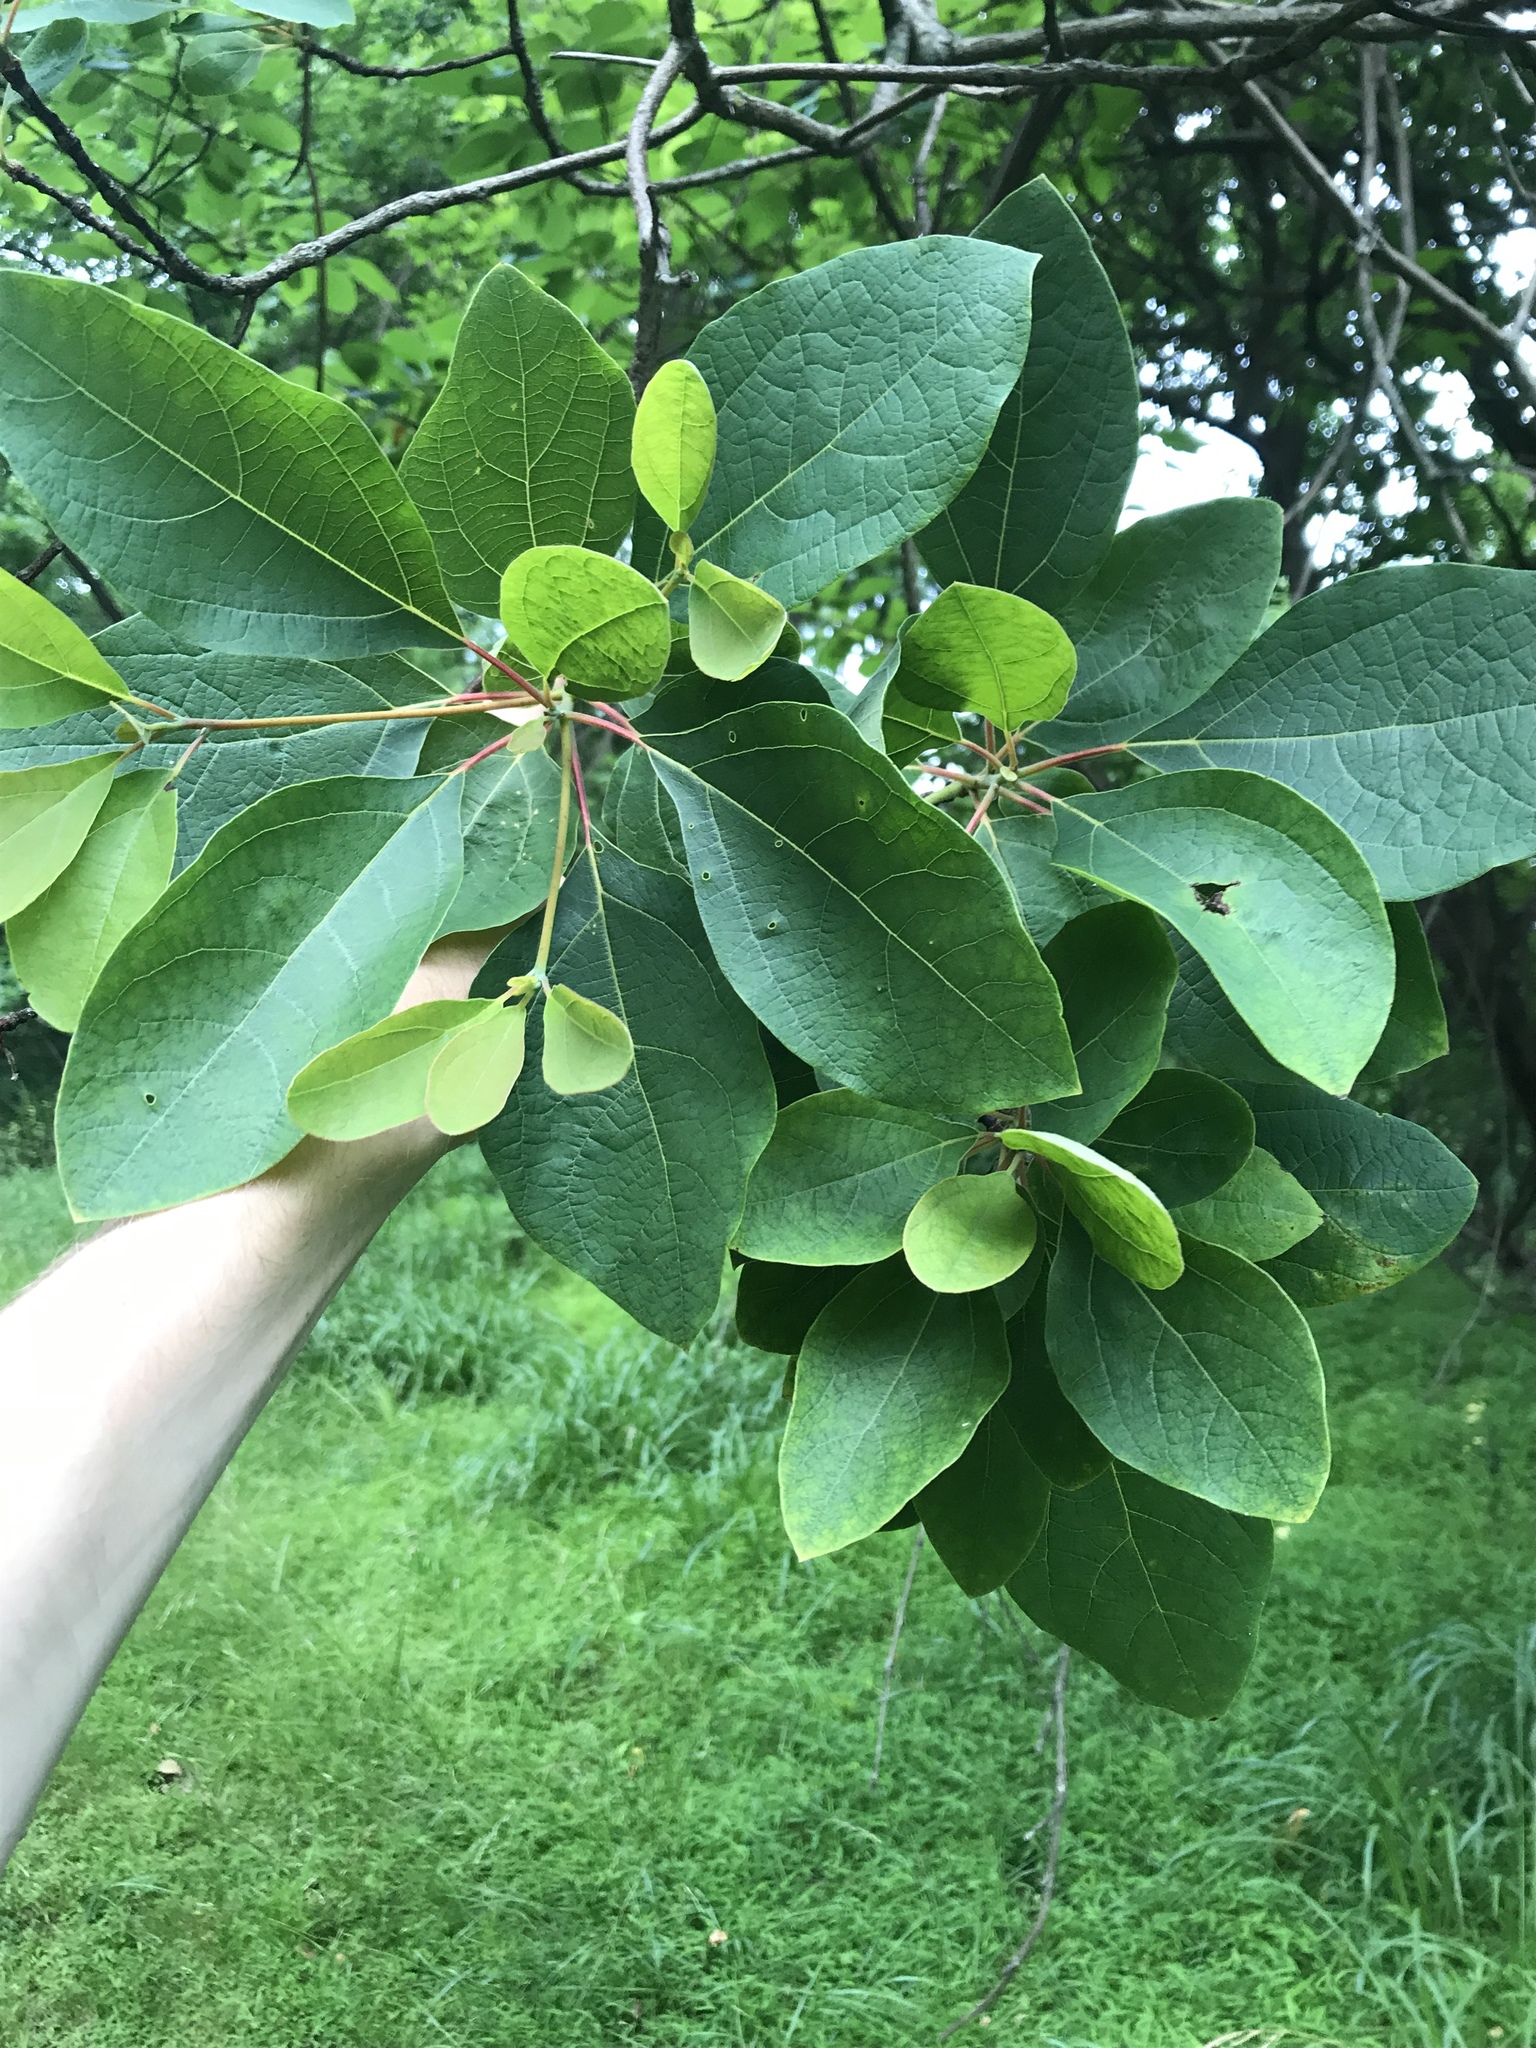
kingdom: Plantae
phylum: Tracheophyta
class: Magnoliopsida
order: Laurales
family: Lauraceae
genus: Sassafras
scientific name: Sassafras albidum
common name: Sassafras
